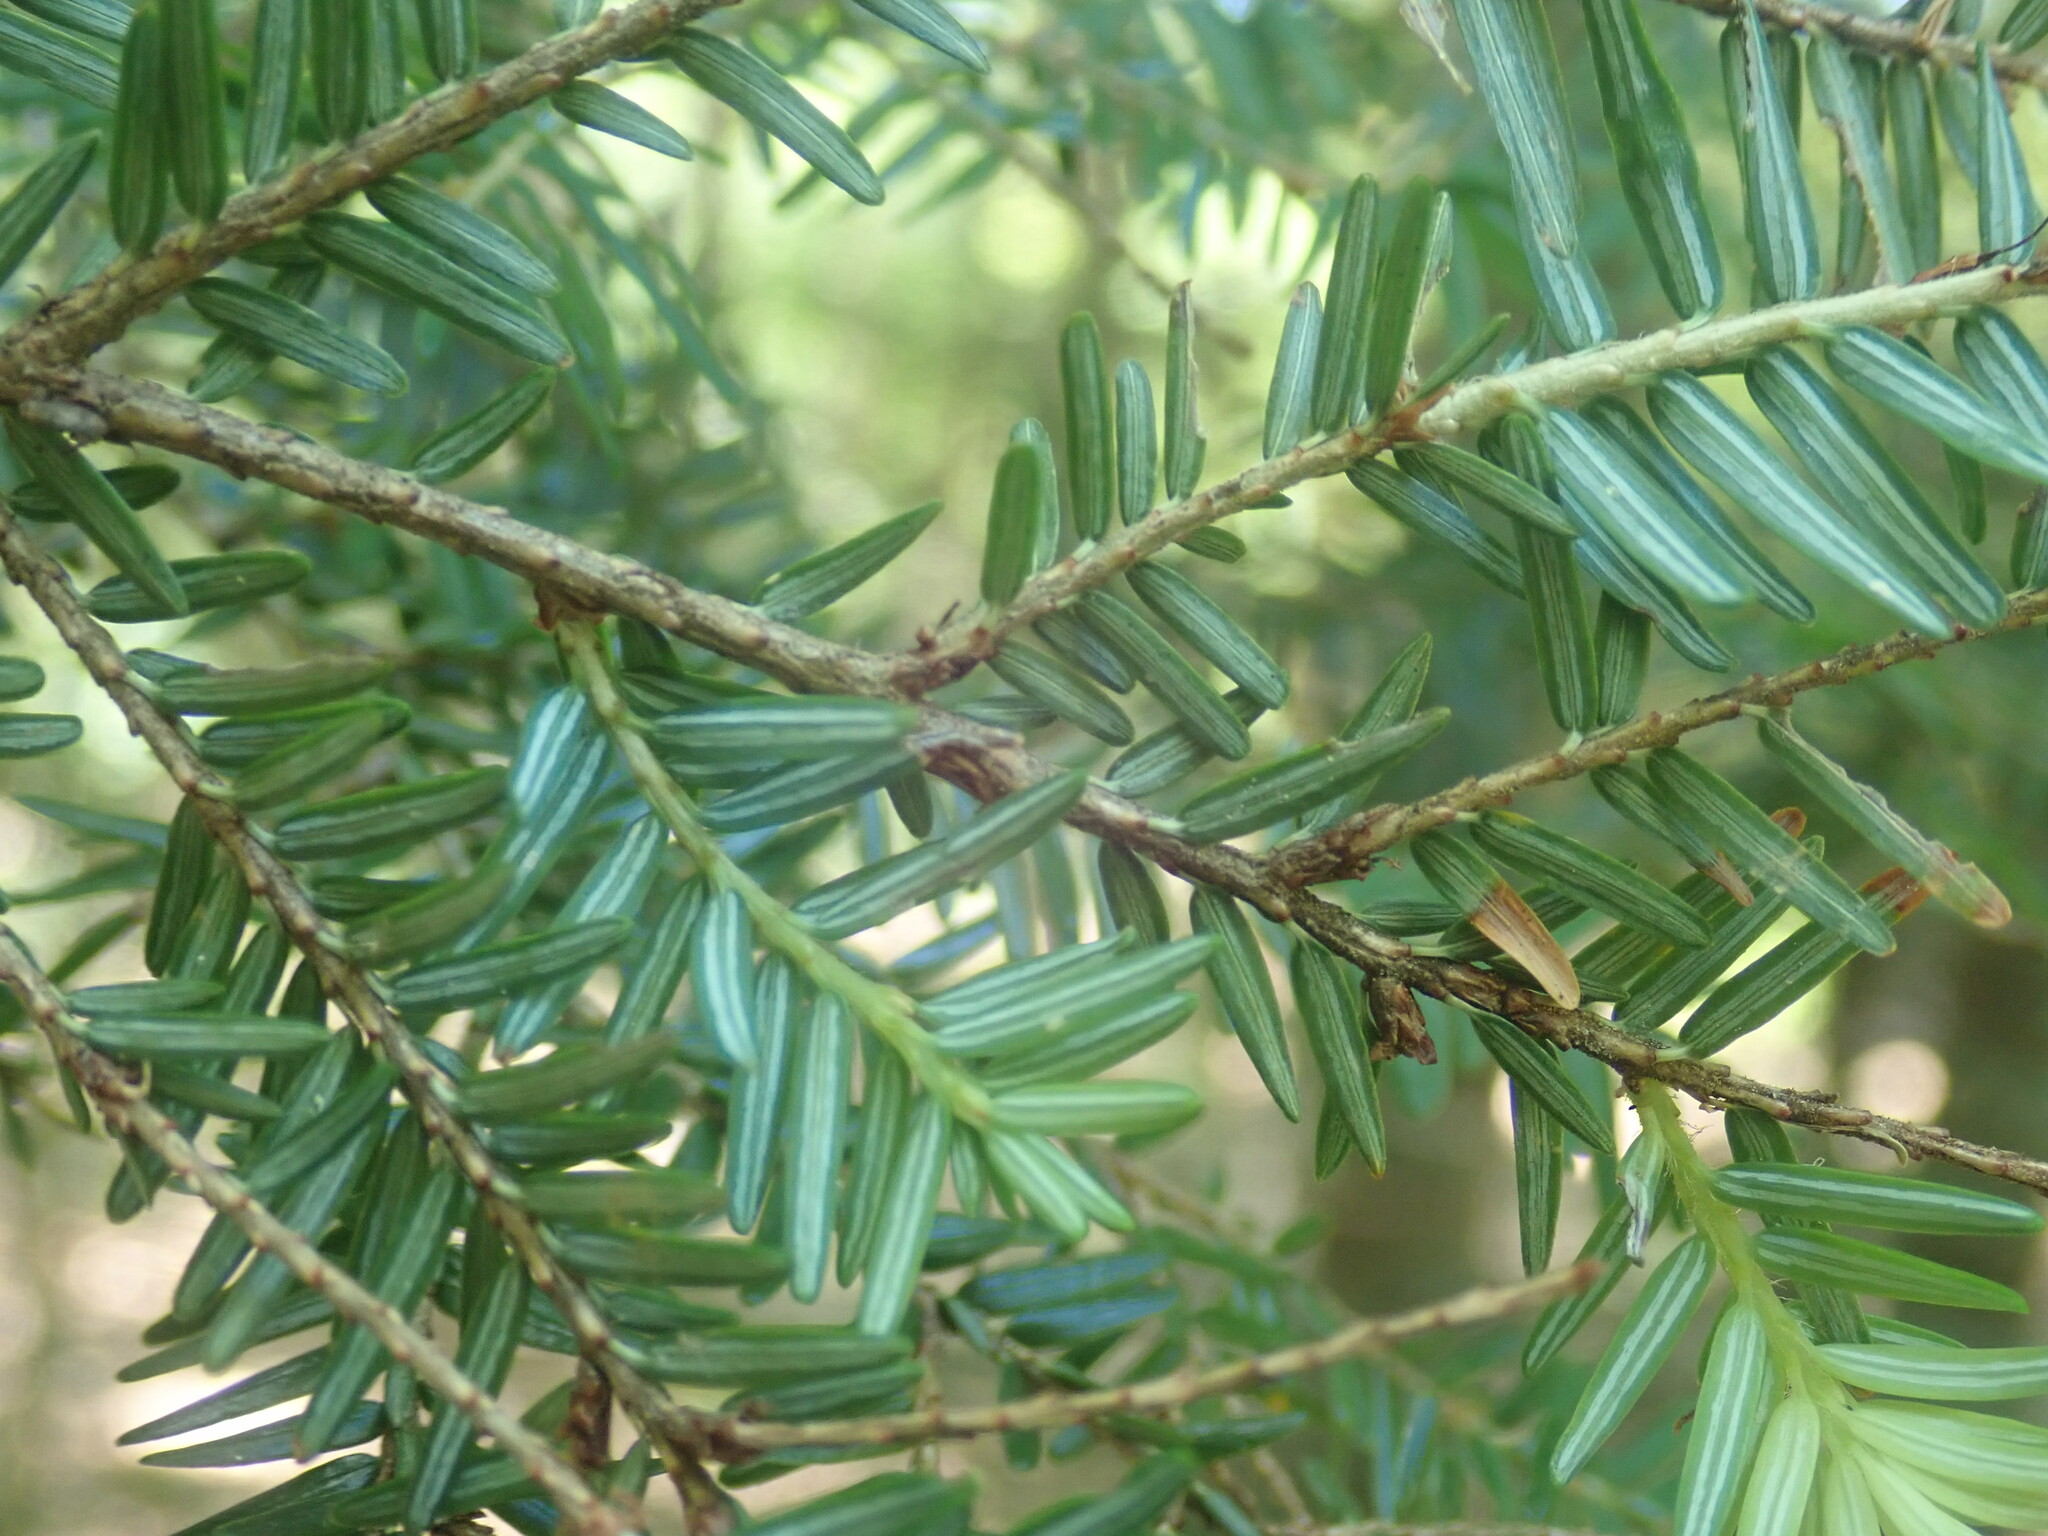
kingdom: Plantae
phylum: Tracheophyta
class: Pinopsida
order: Pinales
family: Pinaceae
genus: Tsuga
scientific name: Tsuga canadensis
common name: Eastern hemlock
